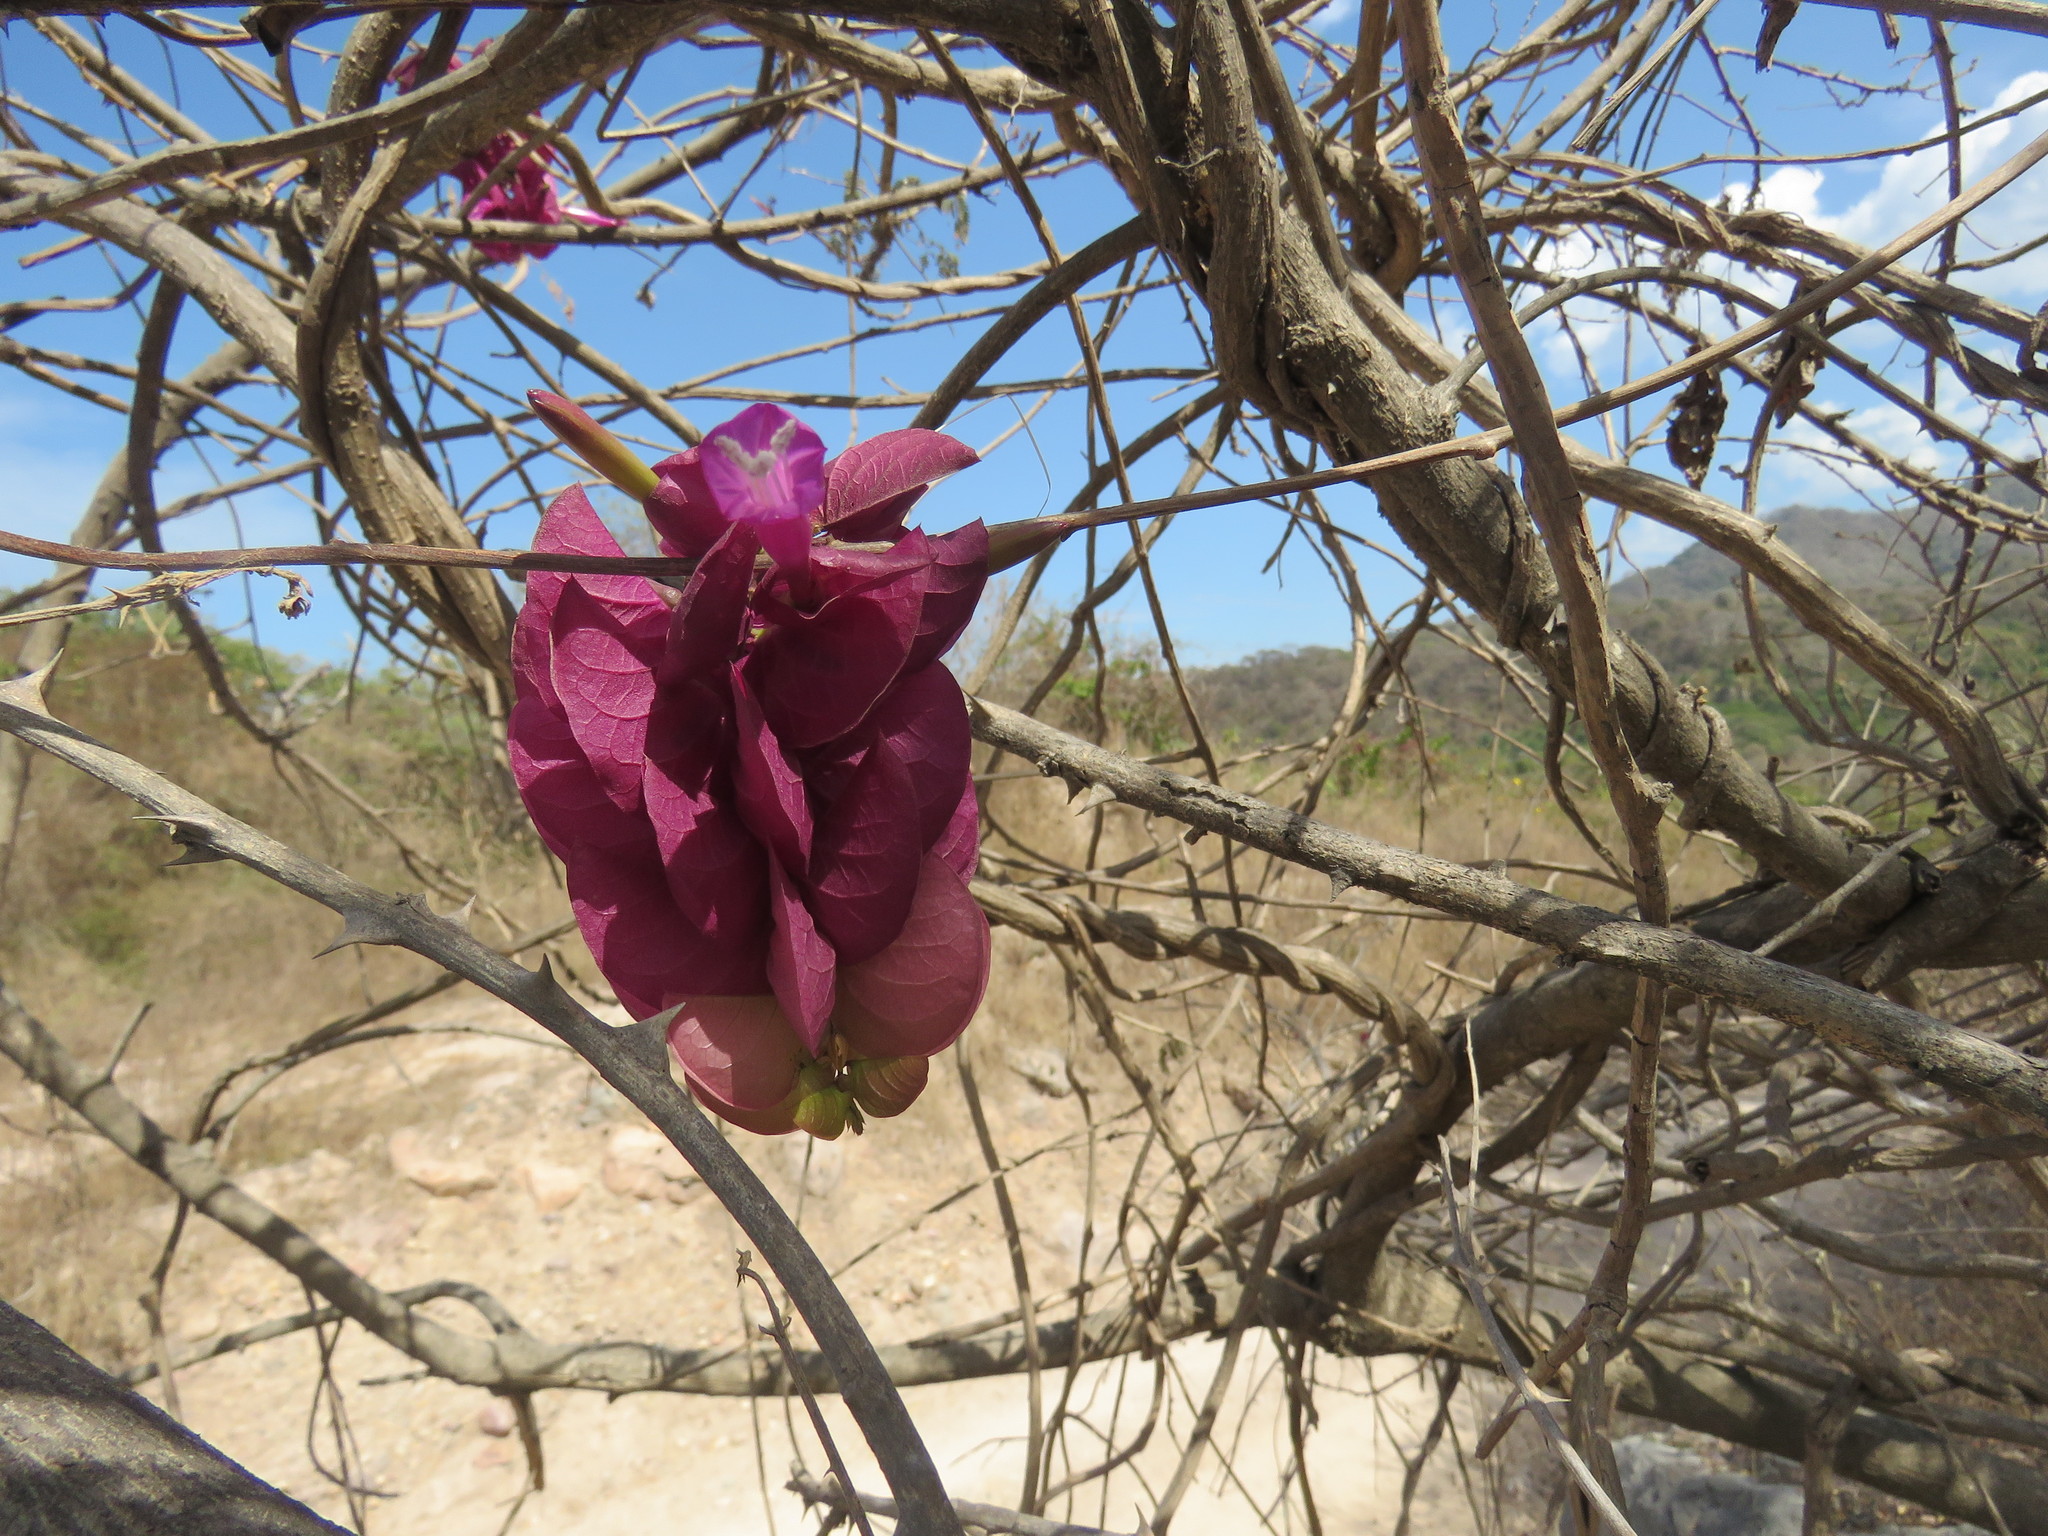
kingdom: Plantae
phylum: Tracheophyta
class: Magnoliopsida
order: Solanales
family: Convolvulaceae
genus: Ipomoea
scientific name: Ipomoea bracteata
